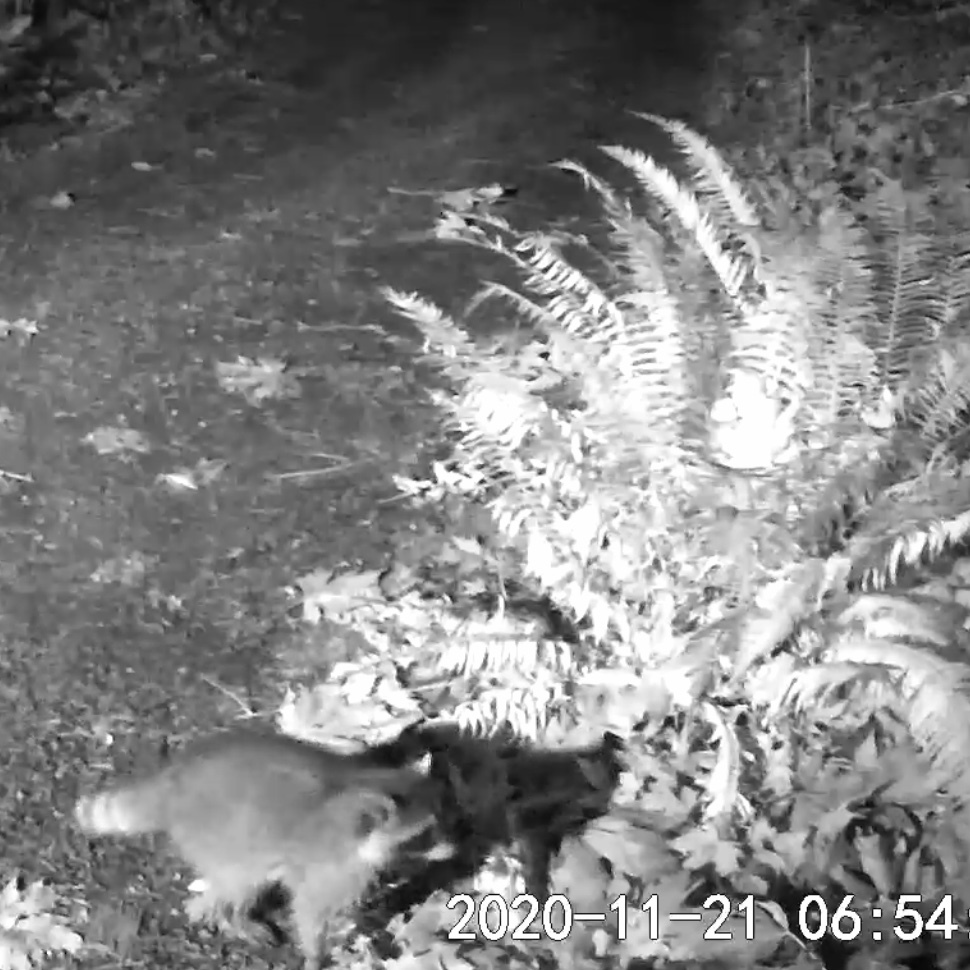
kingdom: Animalia
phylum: Chordata
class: Mammalia
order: Carnivora
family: Procyonidae
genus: Procyon
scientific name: Procyon lotor
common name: Raccoon
